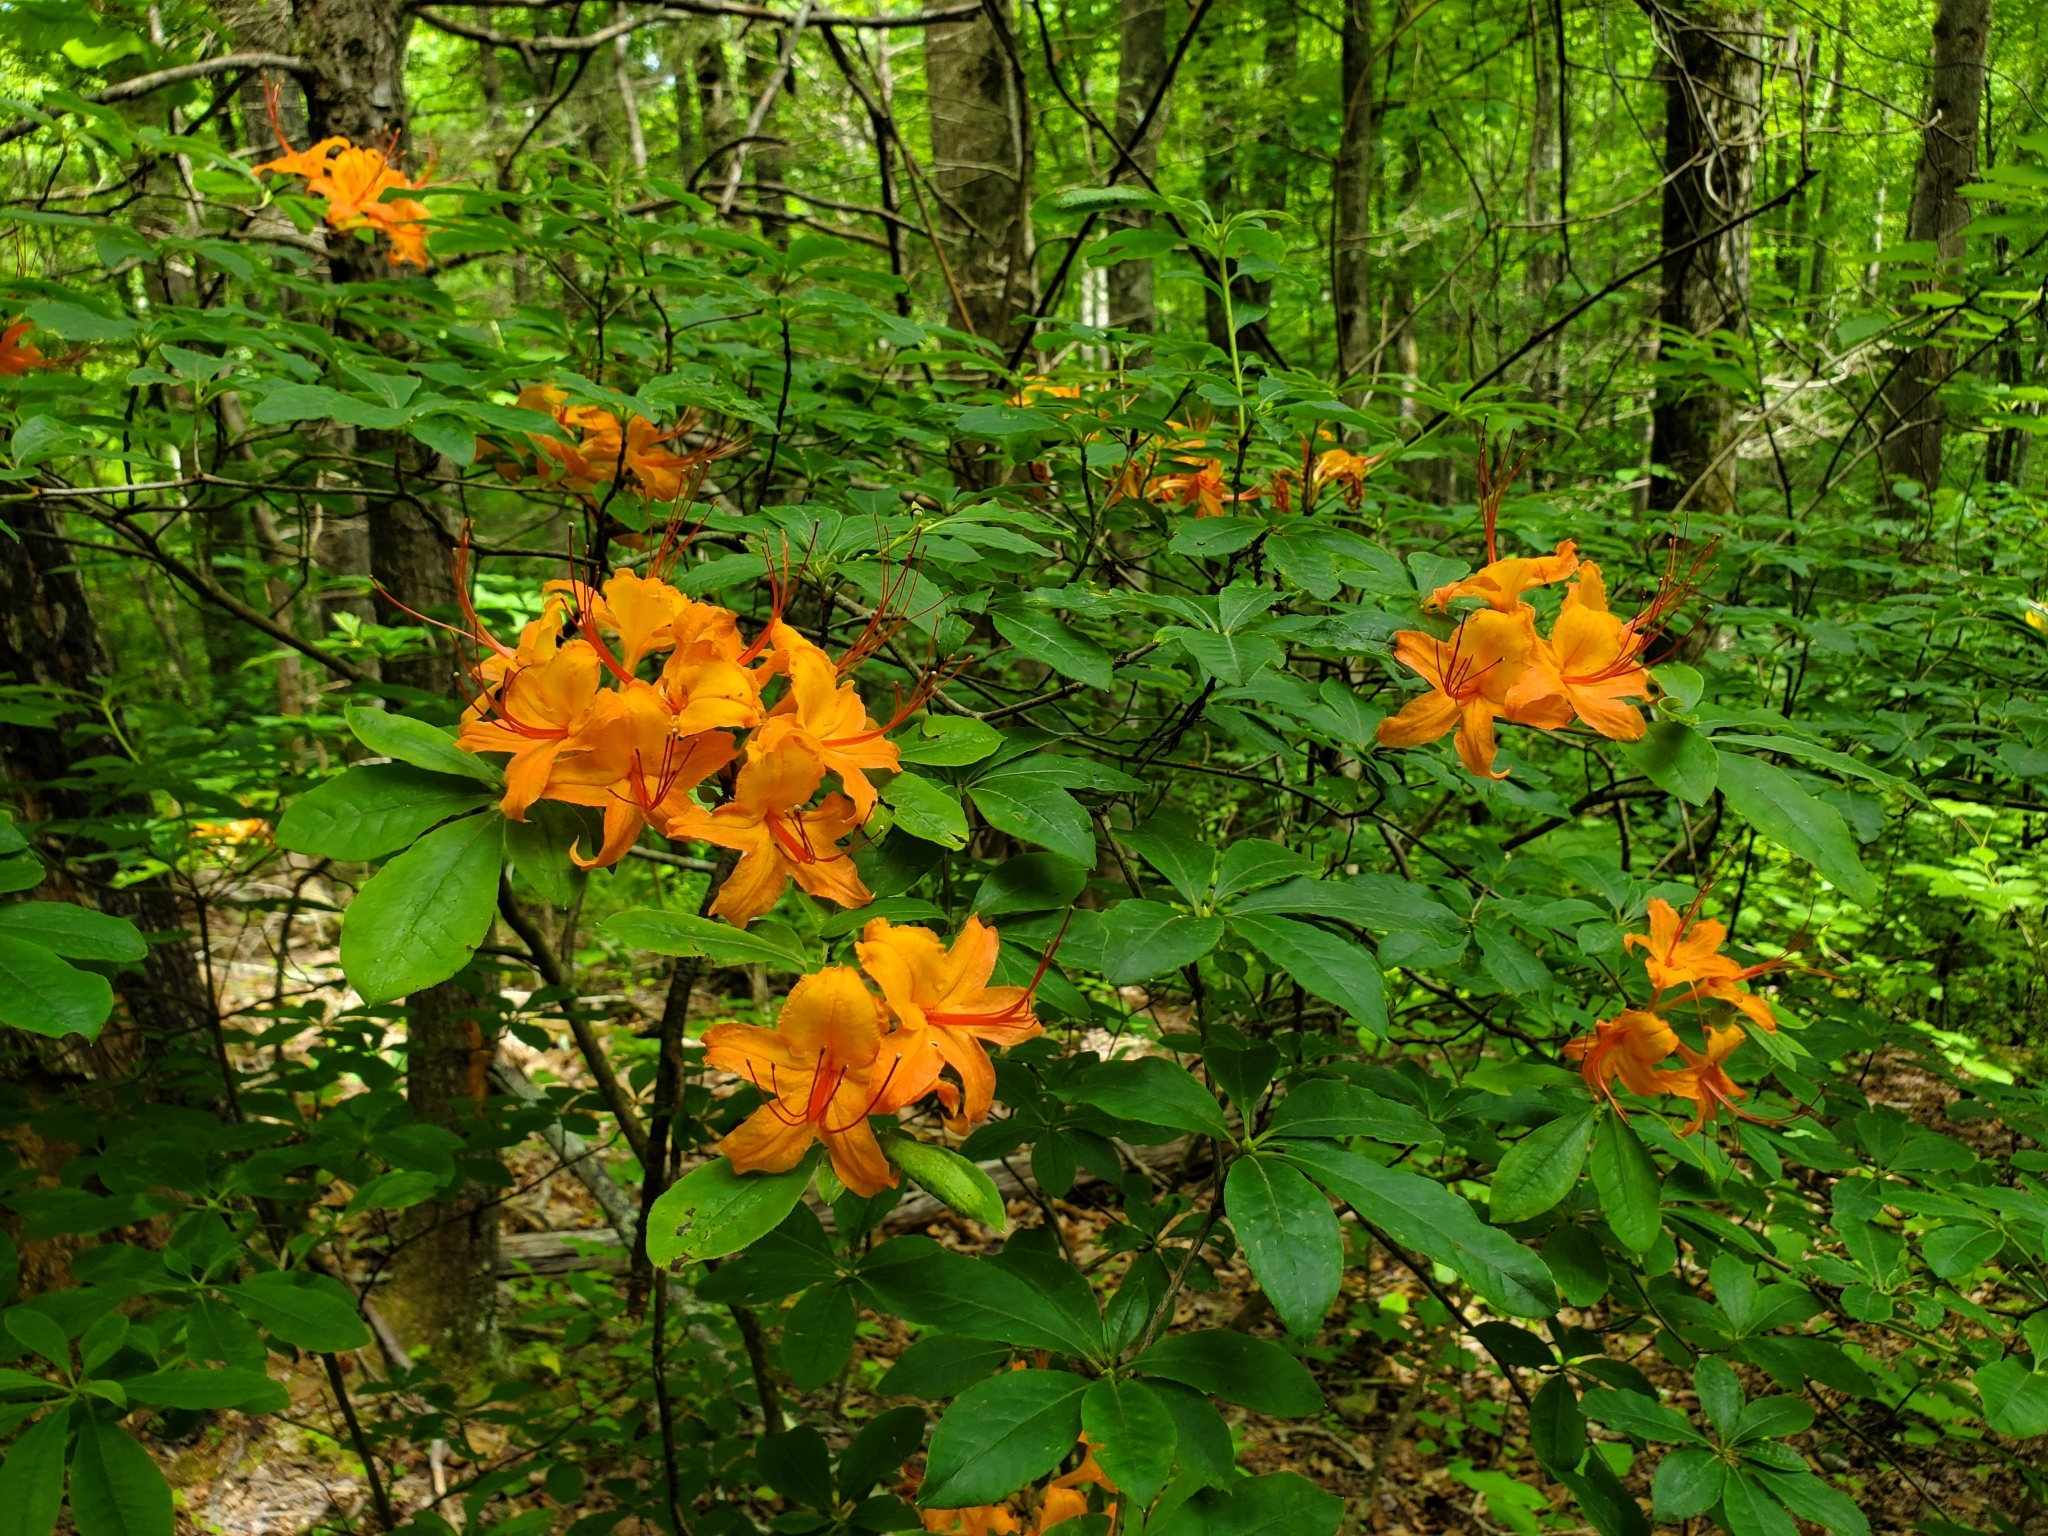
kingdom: Plantae
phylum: Tracheophyta
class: Magnoliopsida
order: Ericales
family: Ericaceae
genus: Rhododendron
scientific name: Rhododendron calendulaceum
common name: Flame azalea
